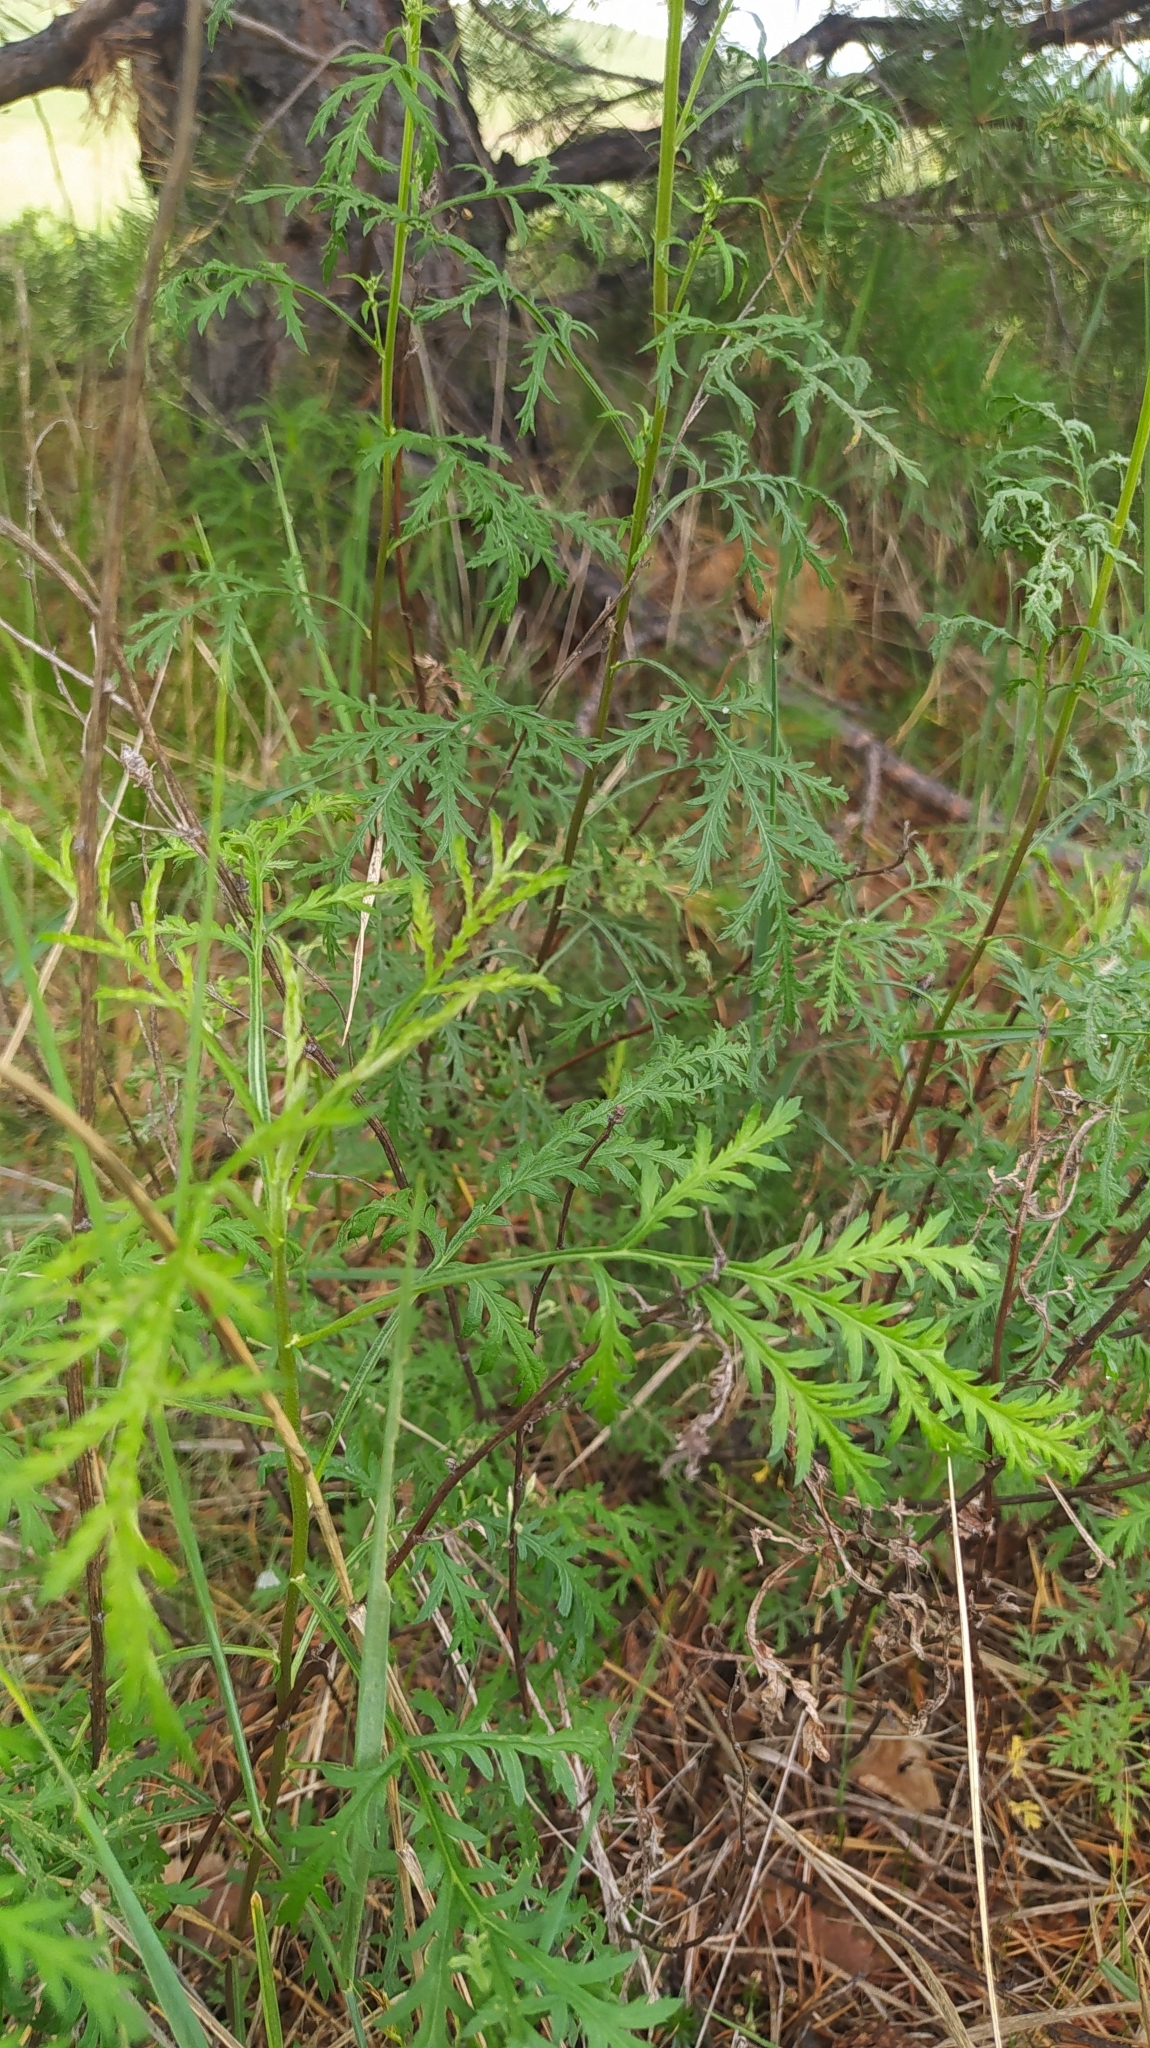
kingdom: Plantae
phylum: Tracheophyta
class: Magnoliopsida
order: Asterales
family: Asteraceae
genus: Artemisia
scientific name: Artemisia gmelinii
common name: Gmelin's wormwood
